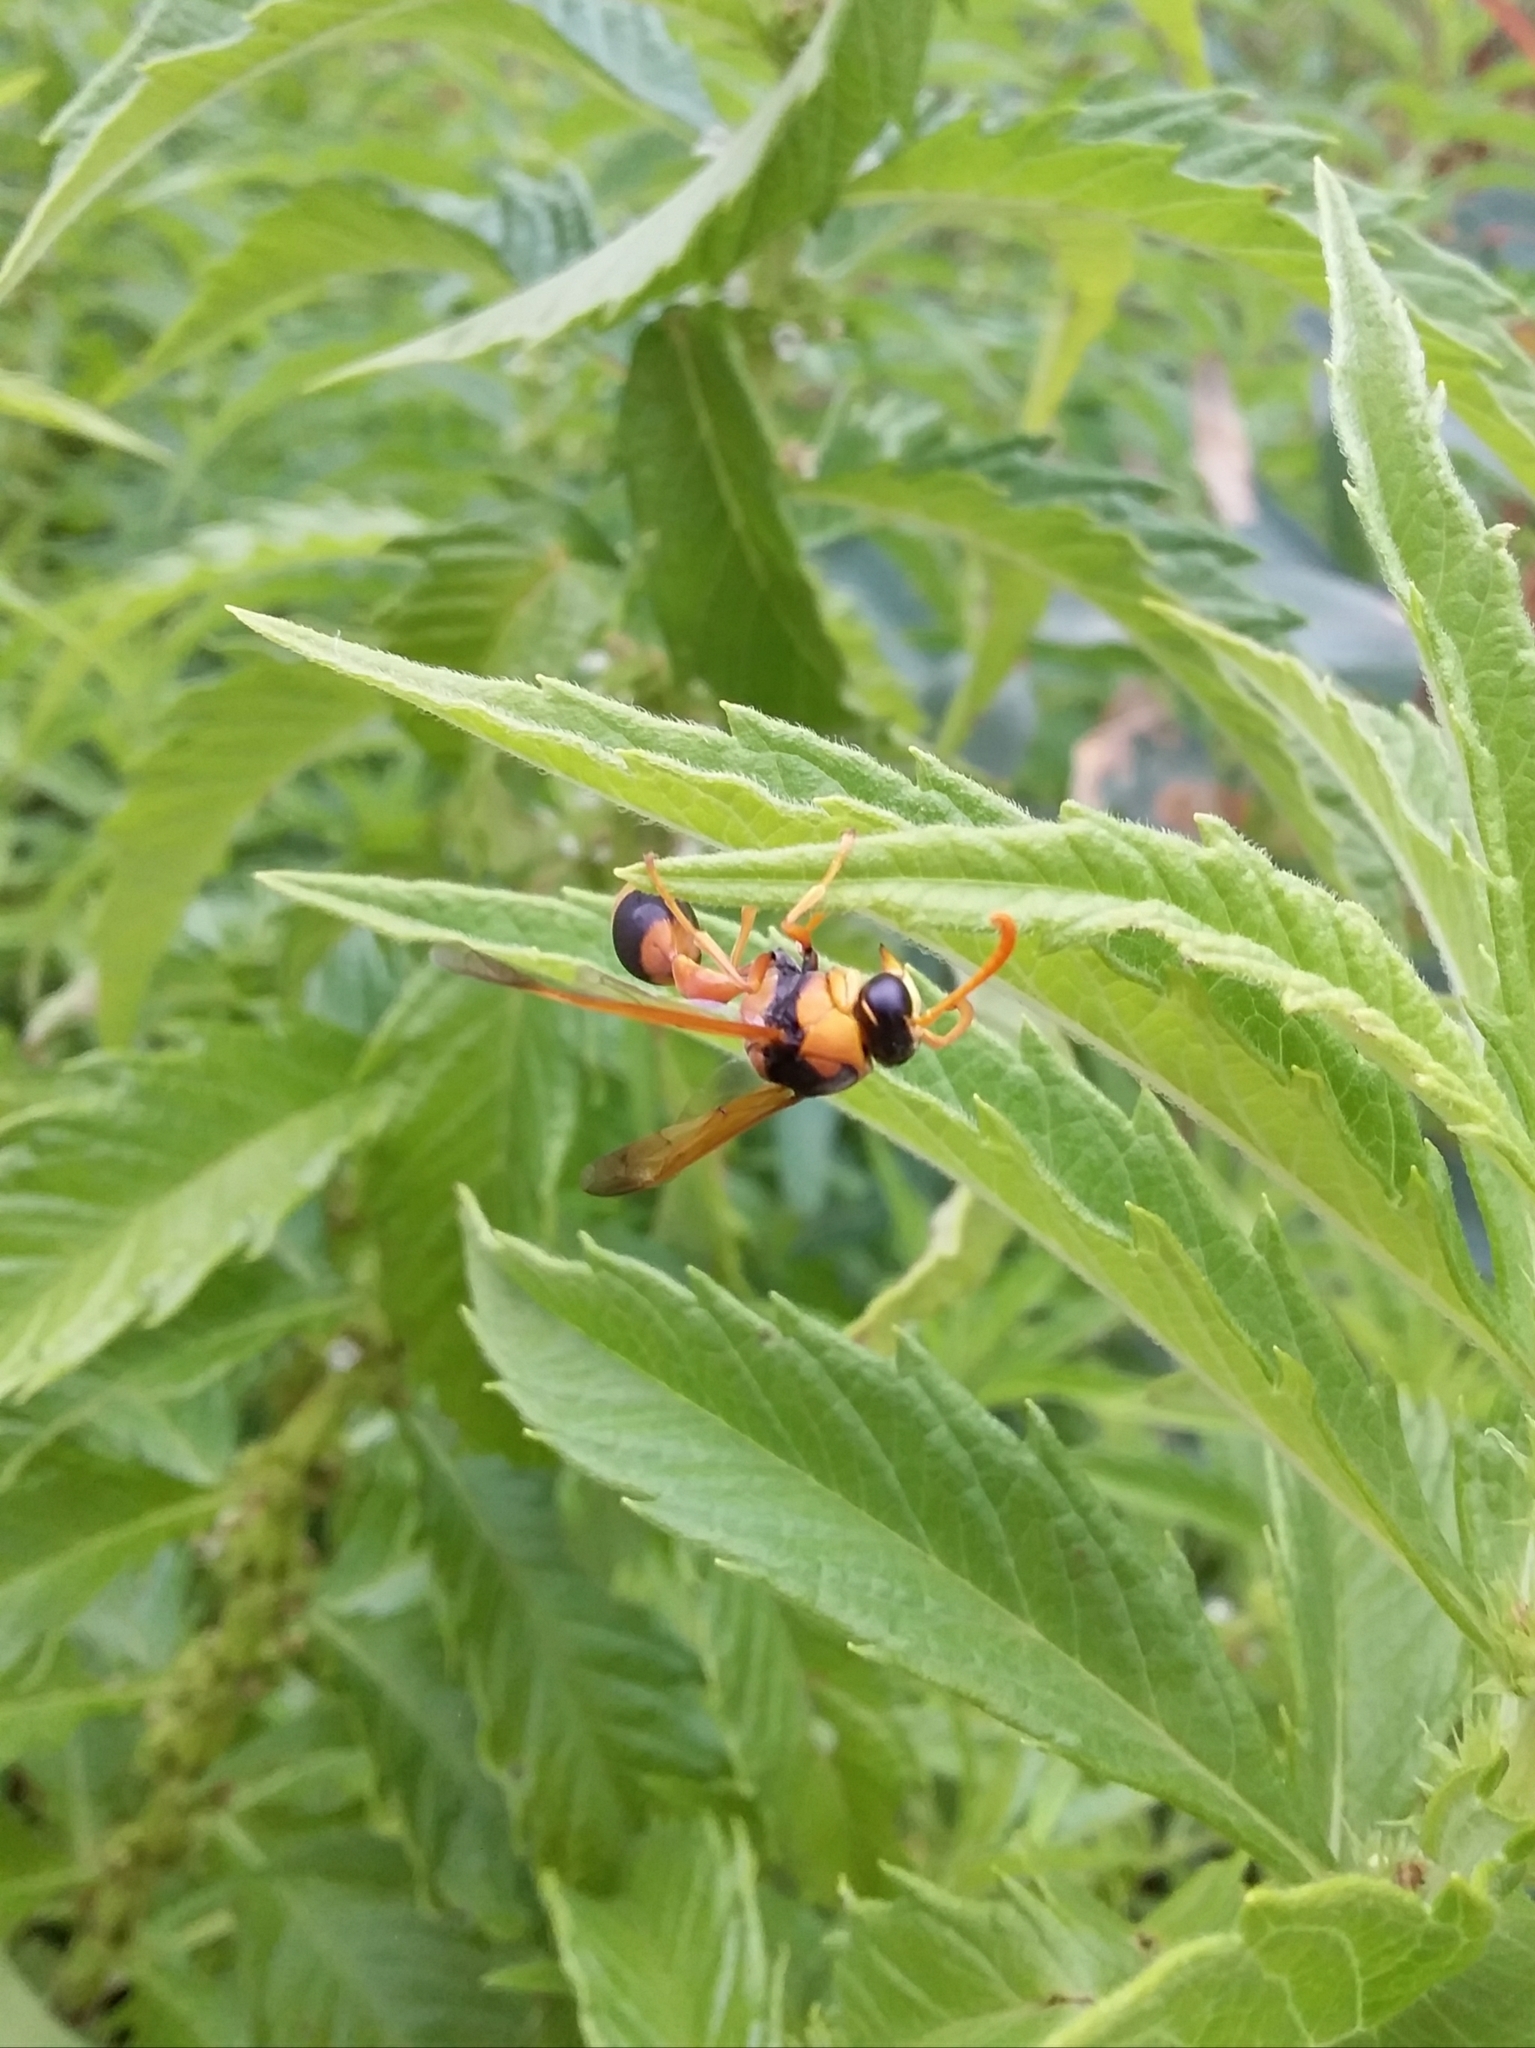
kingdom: Animalia
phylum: Arthropoda
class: Insecta
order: Hymenoptera
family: Eumenidae
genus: Delta
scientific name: Delta bicinctum
